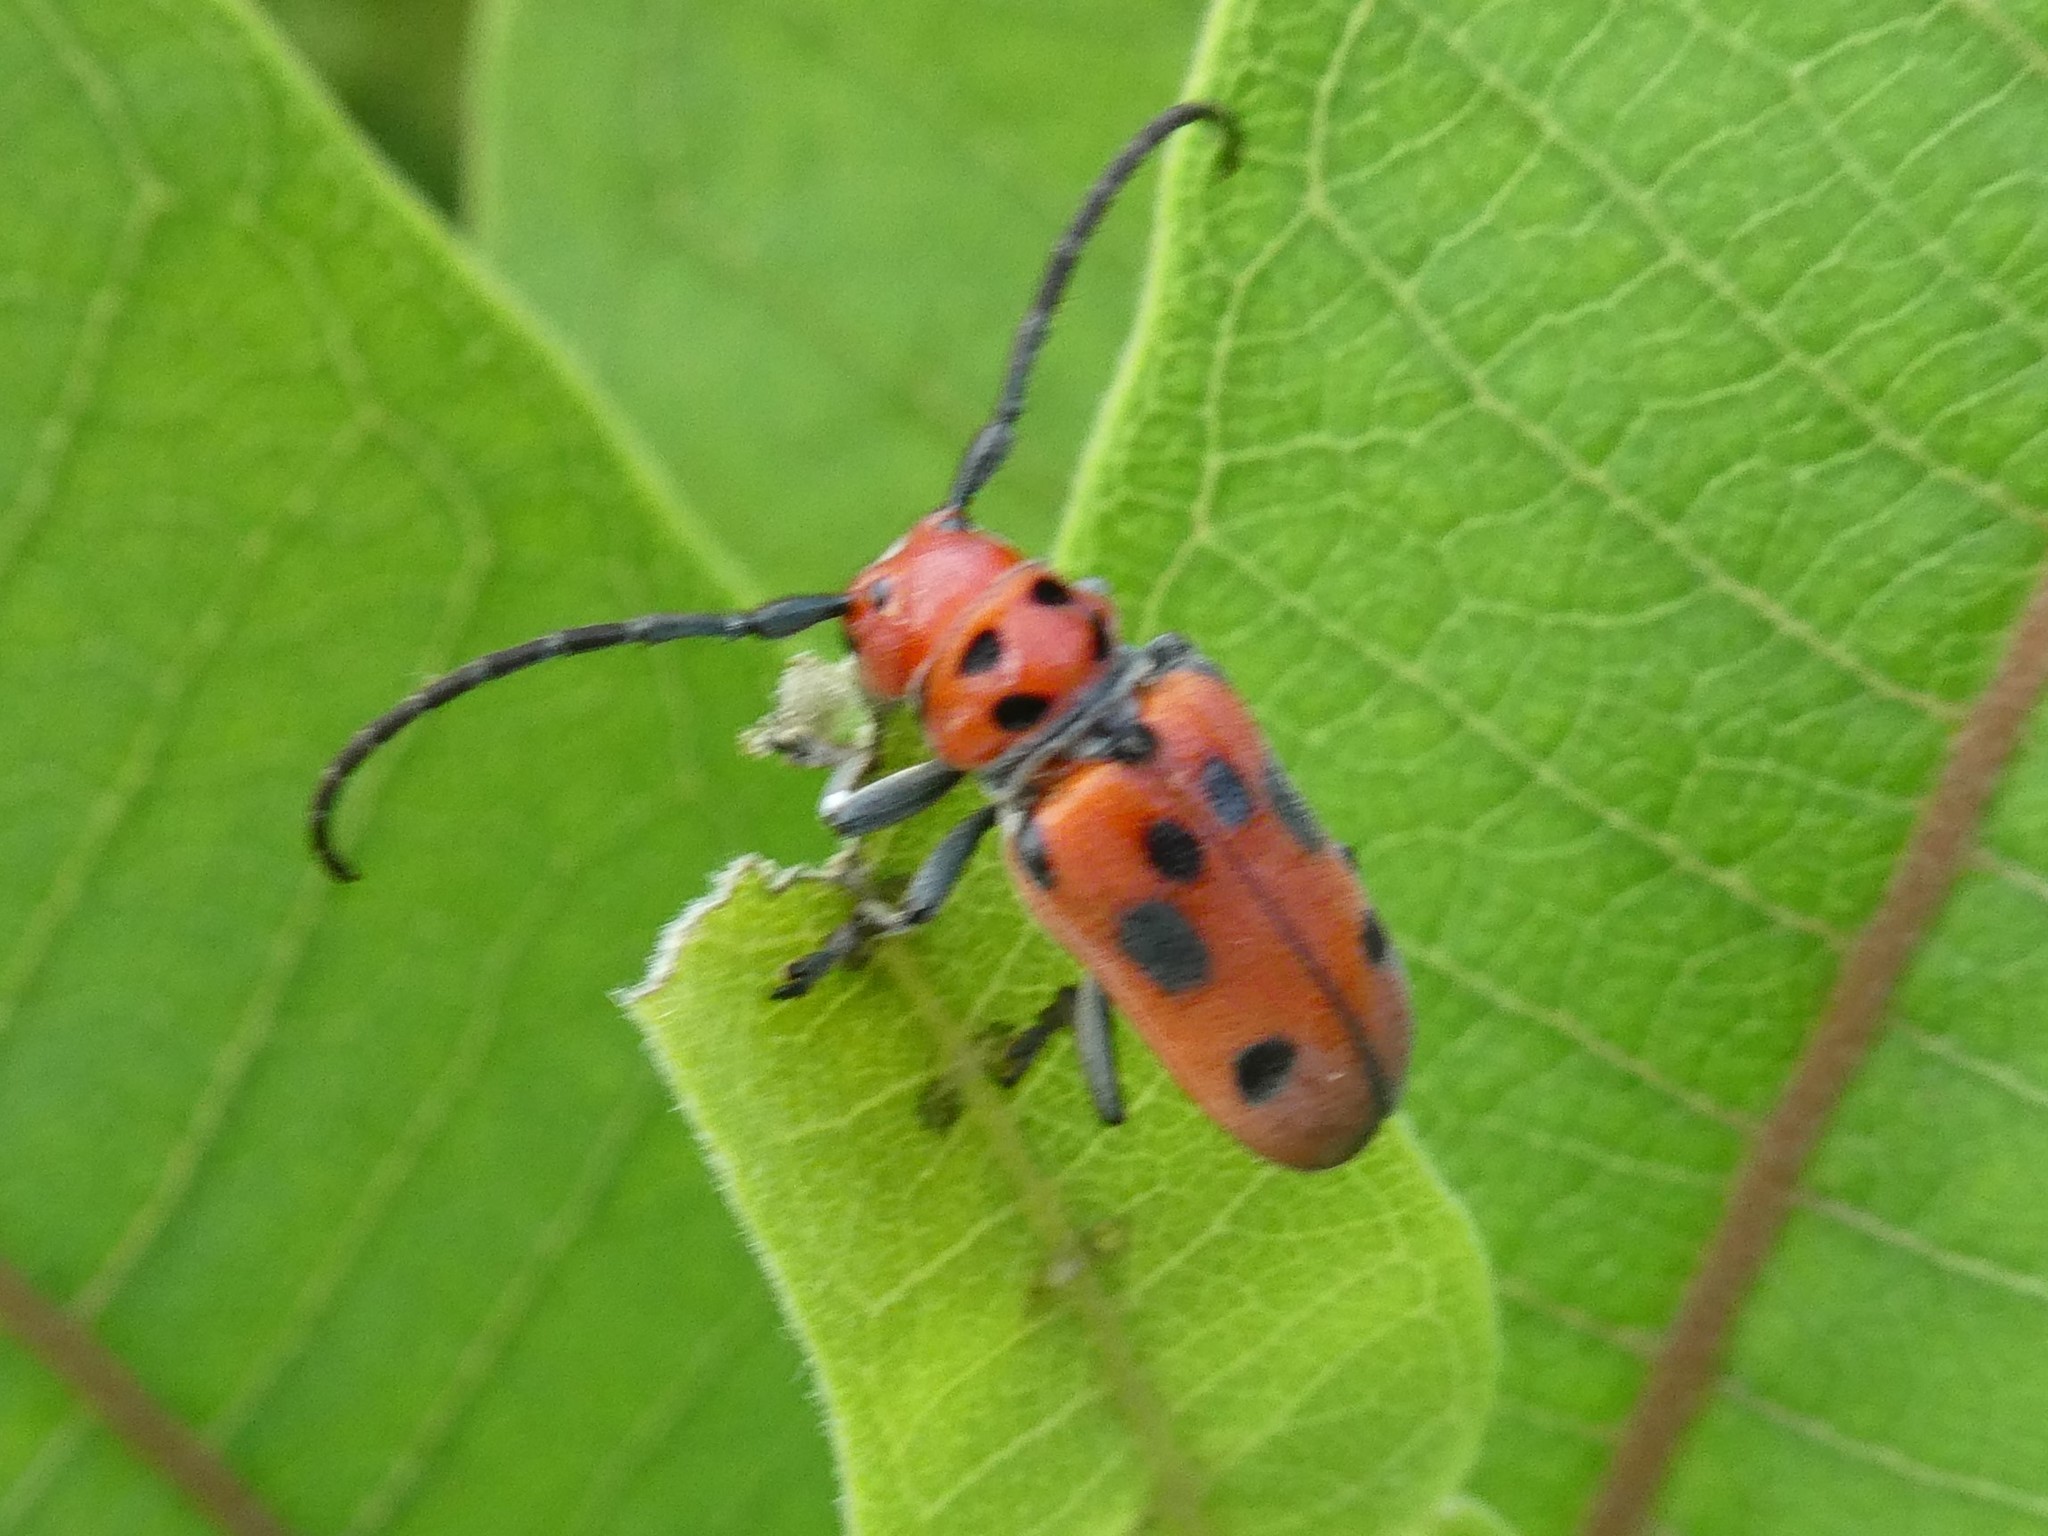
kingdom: Animalia
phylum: Arthropoda
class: Insecta
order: Coleoptera
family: Cerambycidae
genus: Tetraopes
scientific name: Tetraopes tetrophthalmus
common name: Red milkweed beetle
